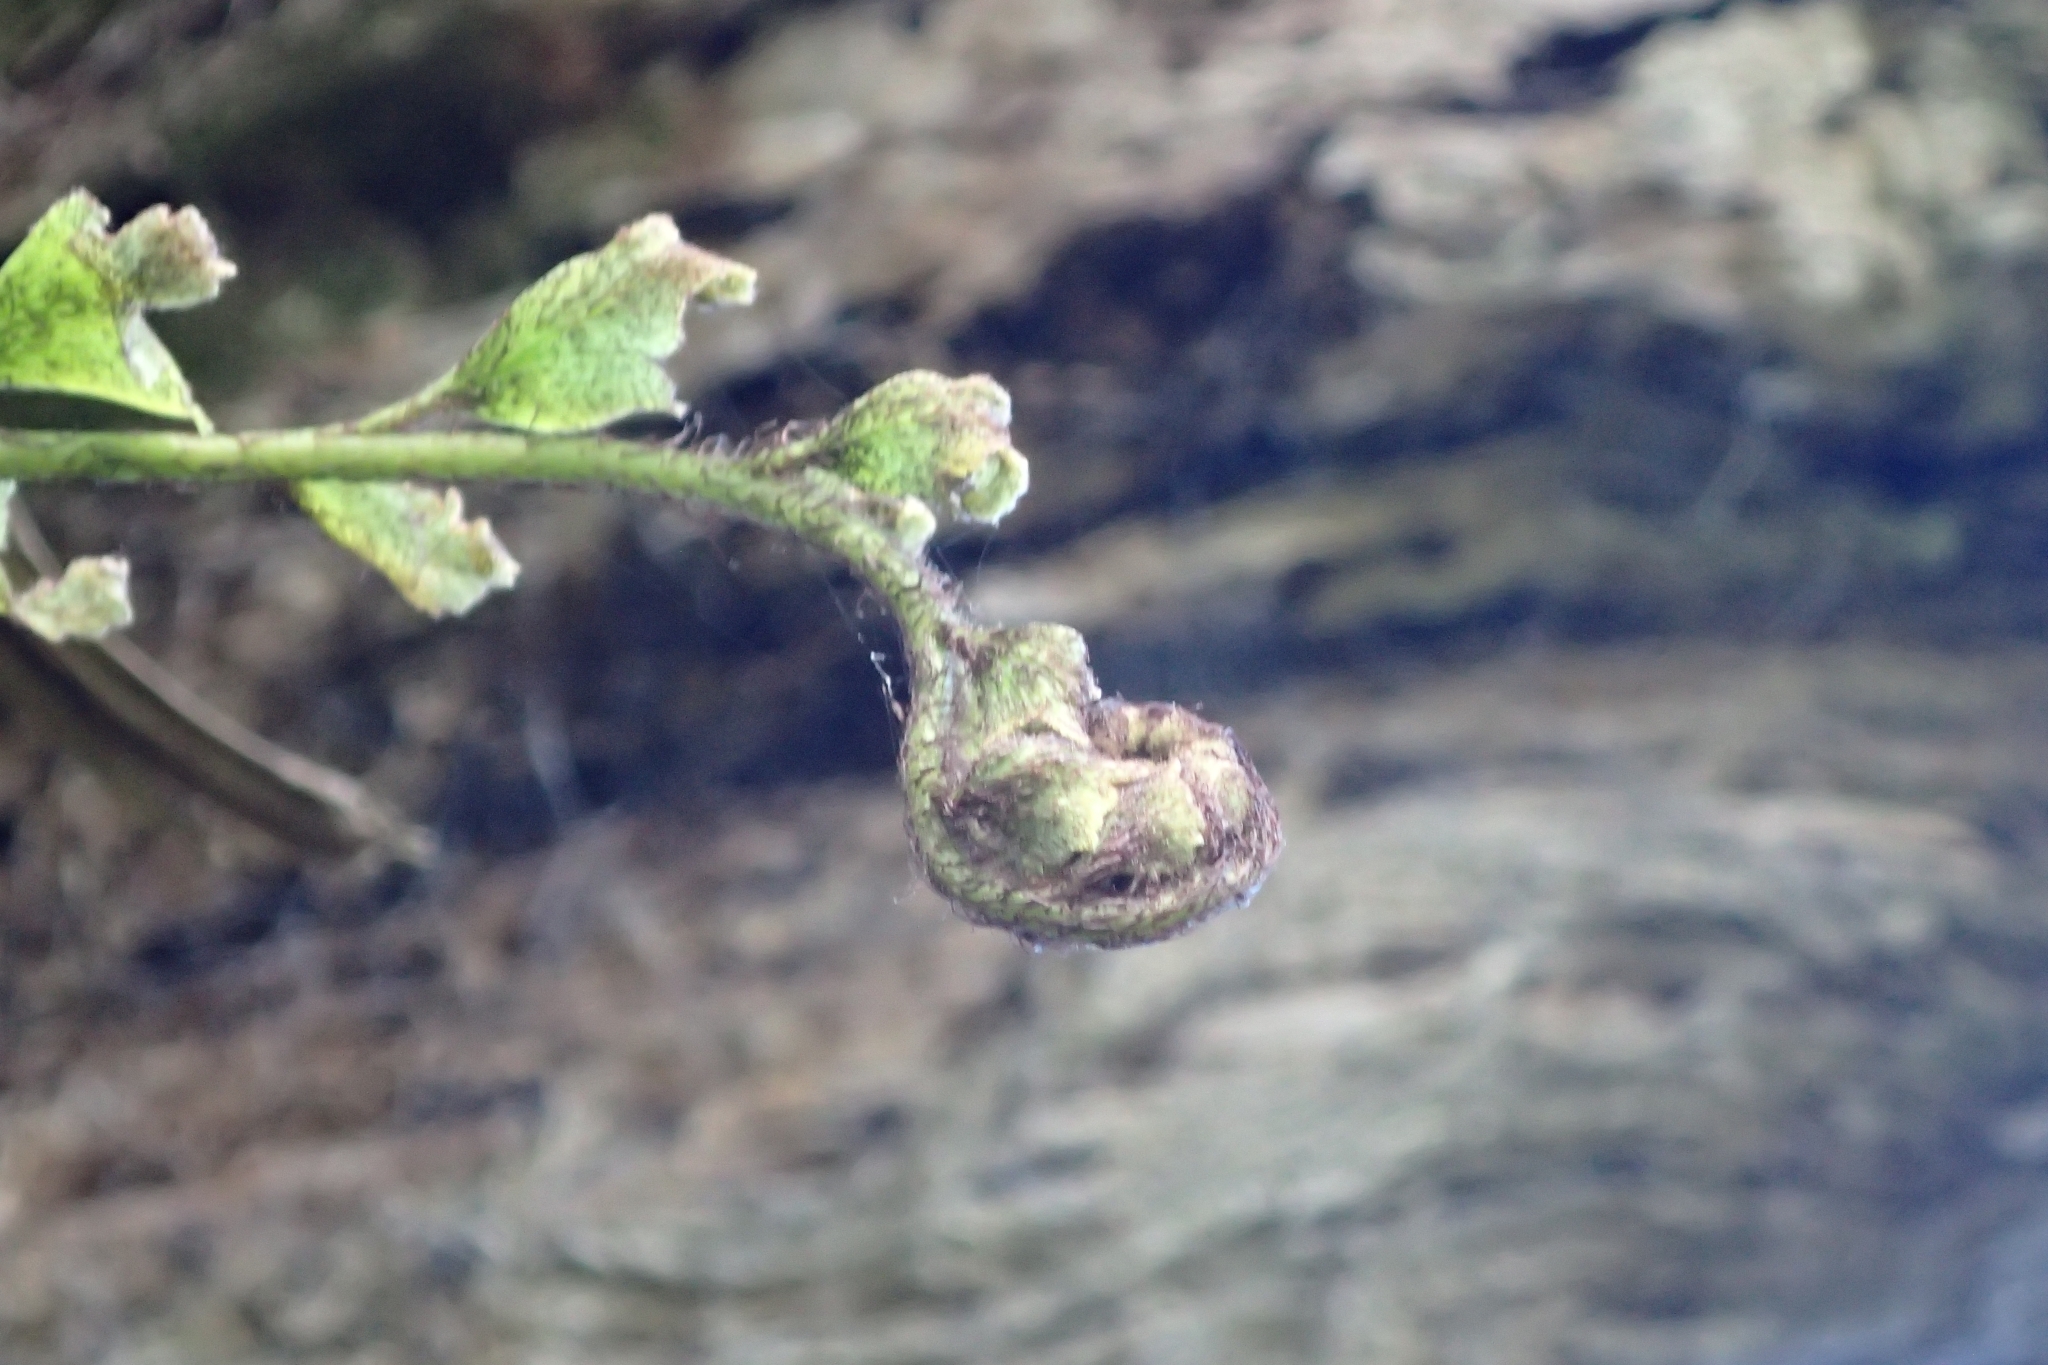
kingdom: Plantae
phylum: Tracheophyta
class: Polypodiopsida
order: Polypodiales
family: Aspleniaceae
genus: Asplenium
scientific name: Asplenium polyodon
